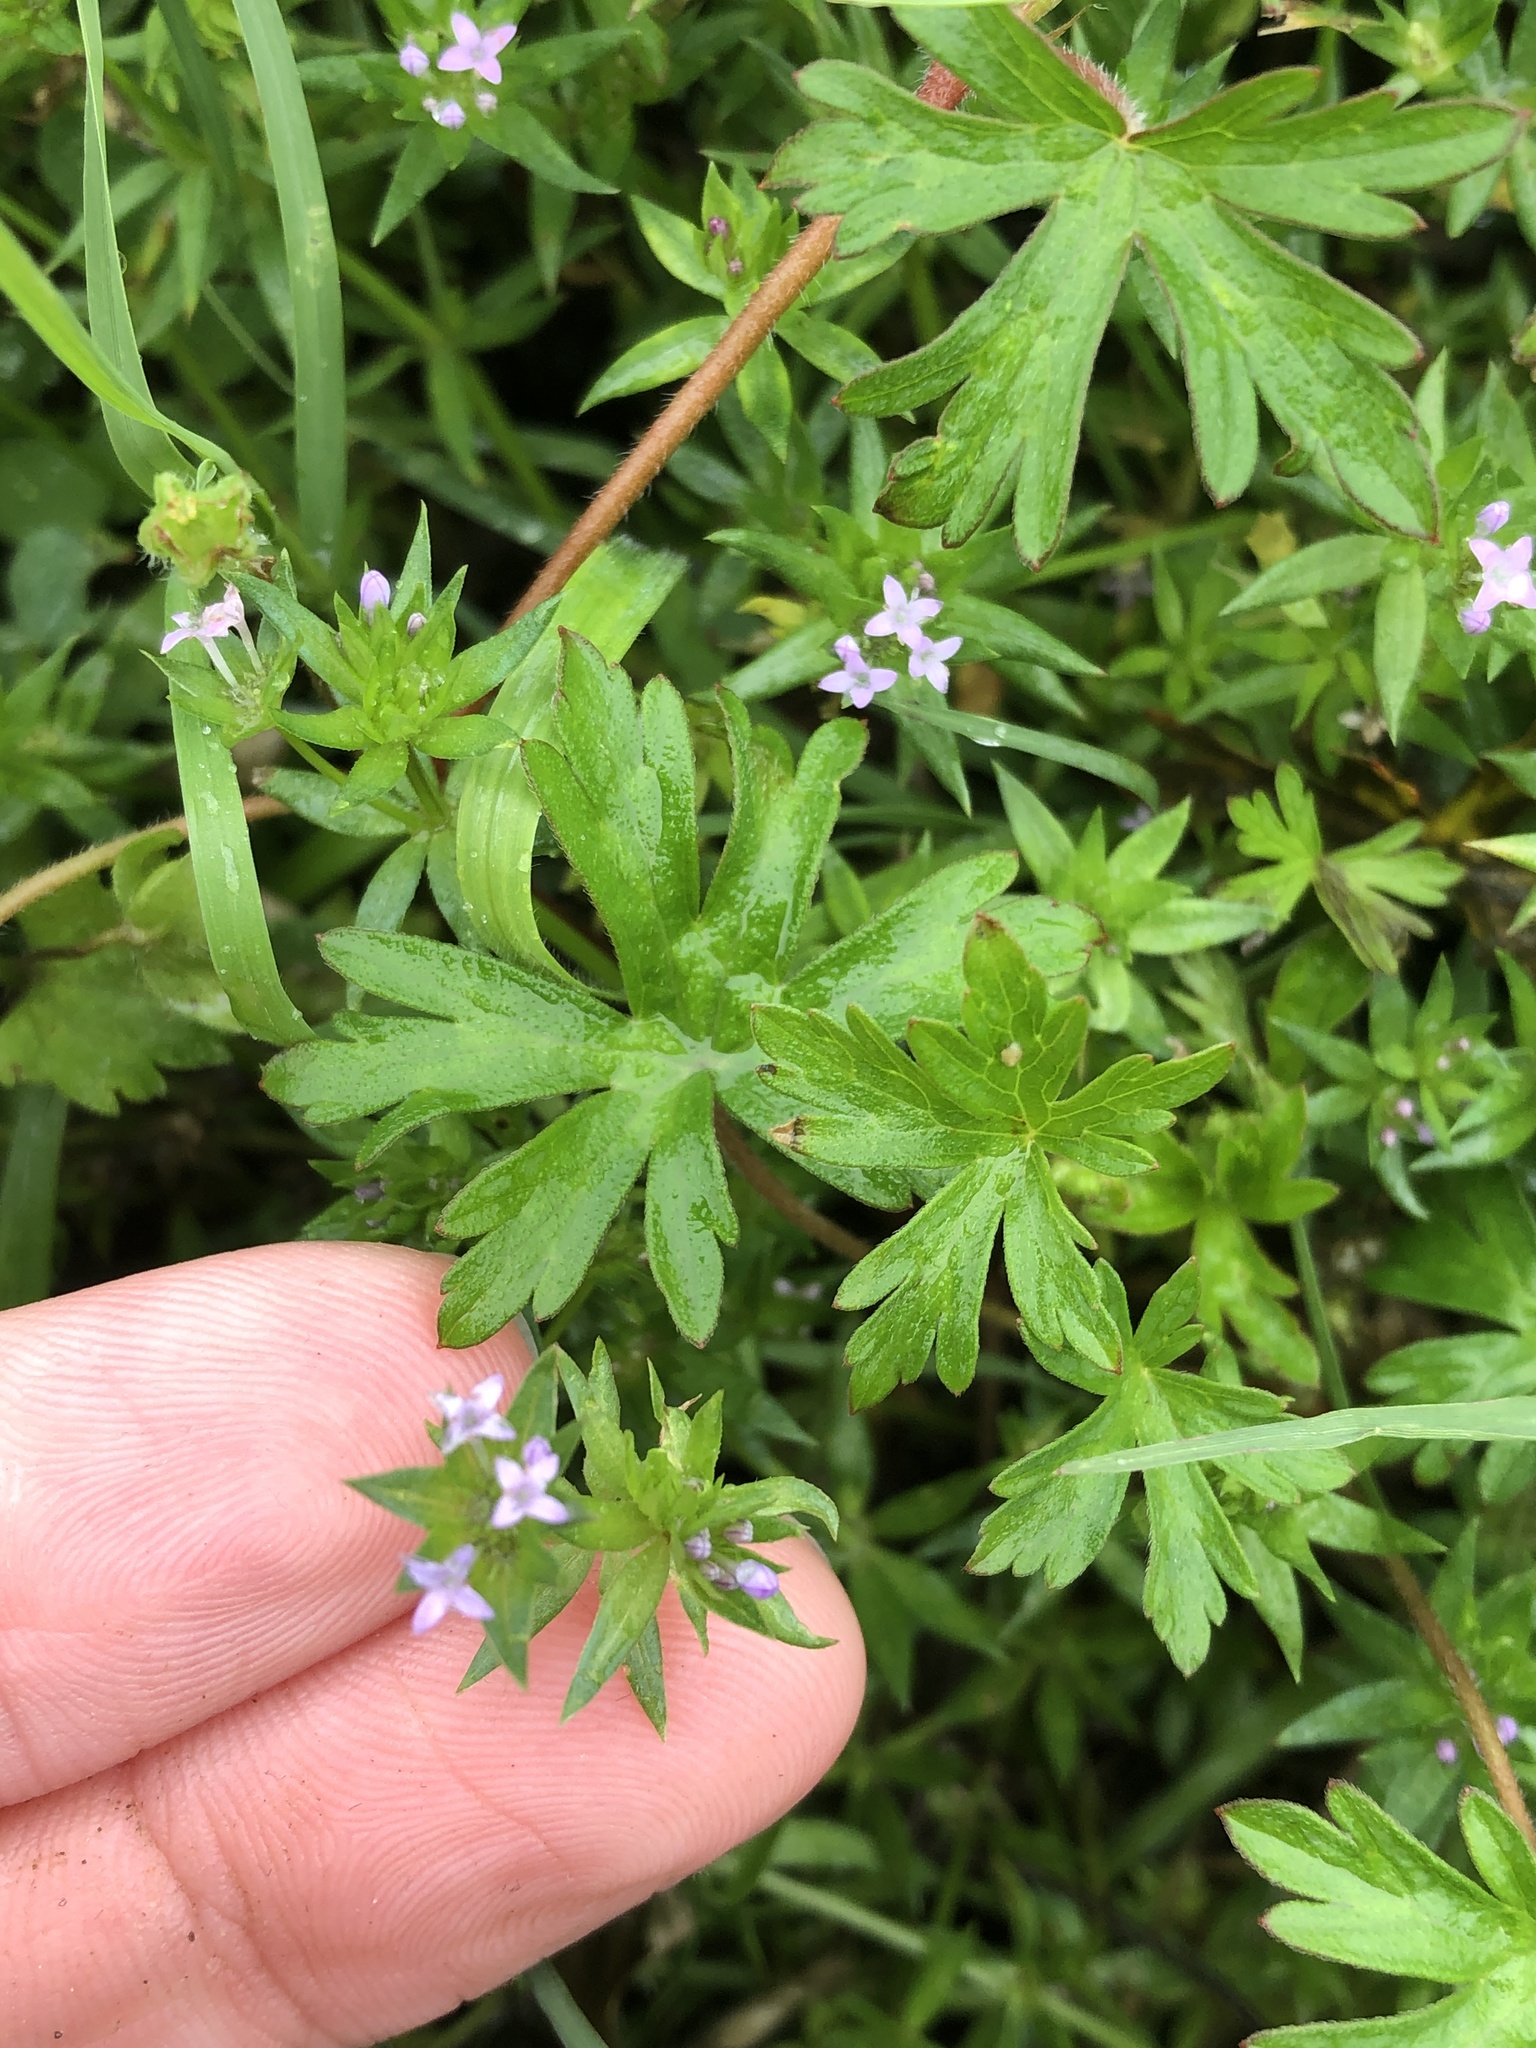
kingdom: Plantae
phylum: Tracheophyta
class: Magnoliopsida
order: Gentianales
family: Rubiaceae
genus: Sherardia
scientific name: Sherardia arvensis
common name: Field madder
